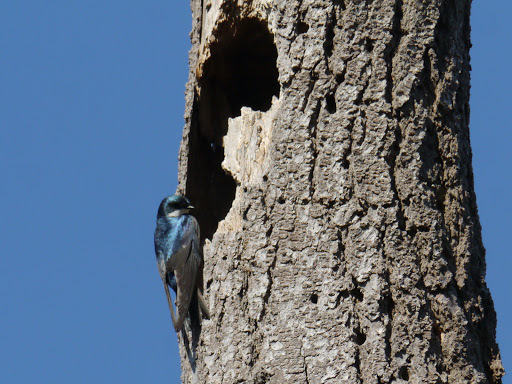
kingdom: Animalia
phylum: Chordata
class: Aves
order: Passeriformes
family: Hirundinidae
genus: Tachycineta
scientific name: Tachycineta bicolor
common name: Tree swallow
